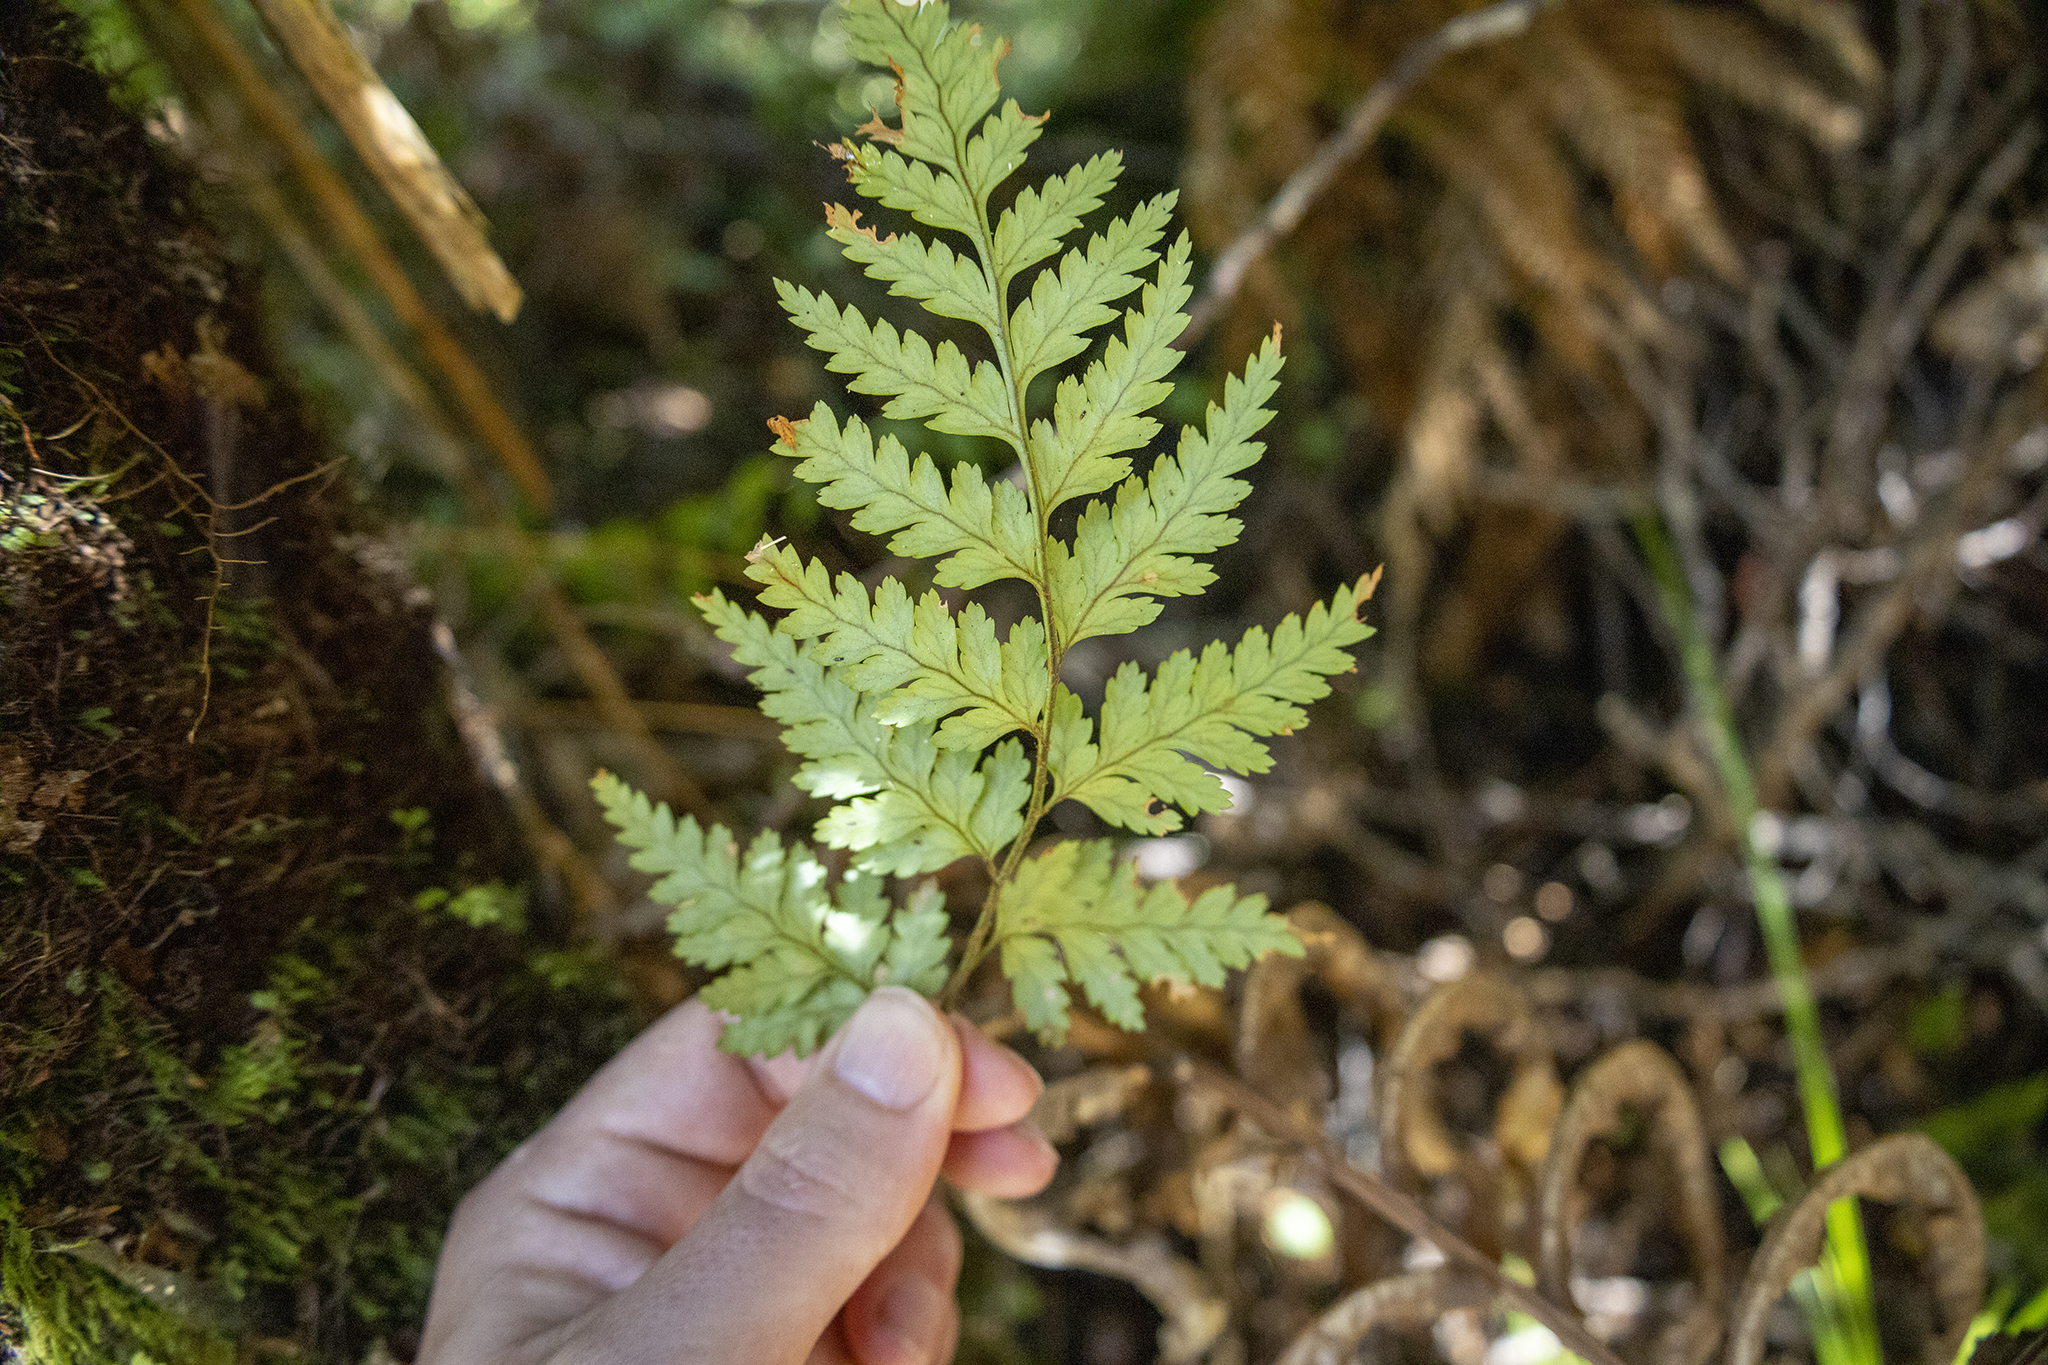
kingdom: Plantae
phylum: Tracheophyta
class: Polypodiopsida
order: Polypodiales
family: Dryopteridaceae
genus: Rumohra
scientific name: Rumohra adiantiformis
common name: Leather fern
